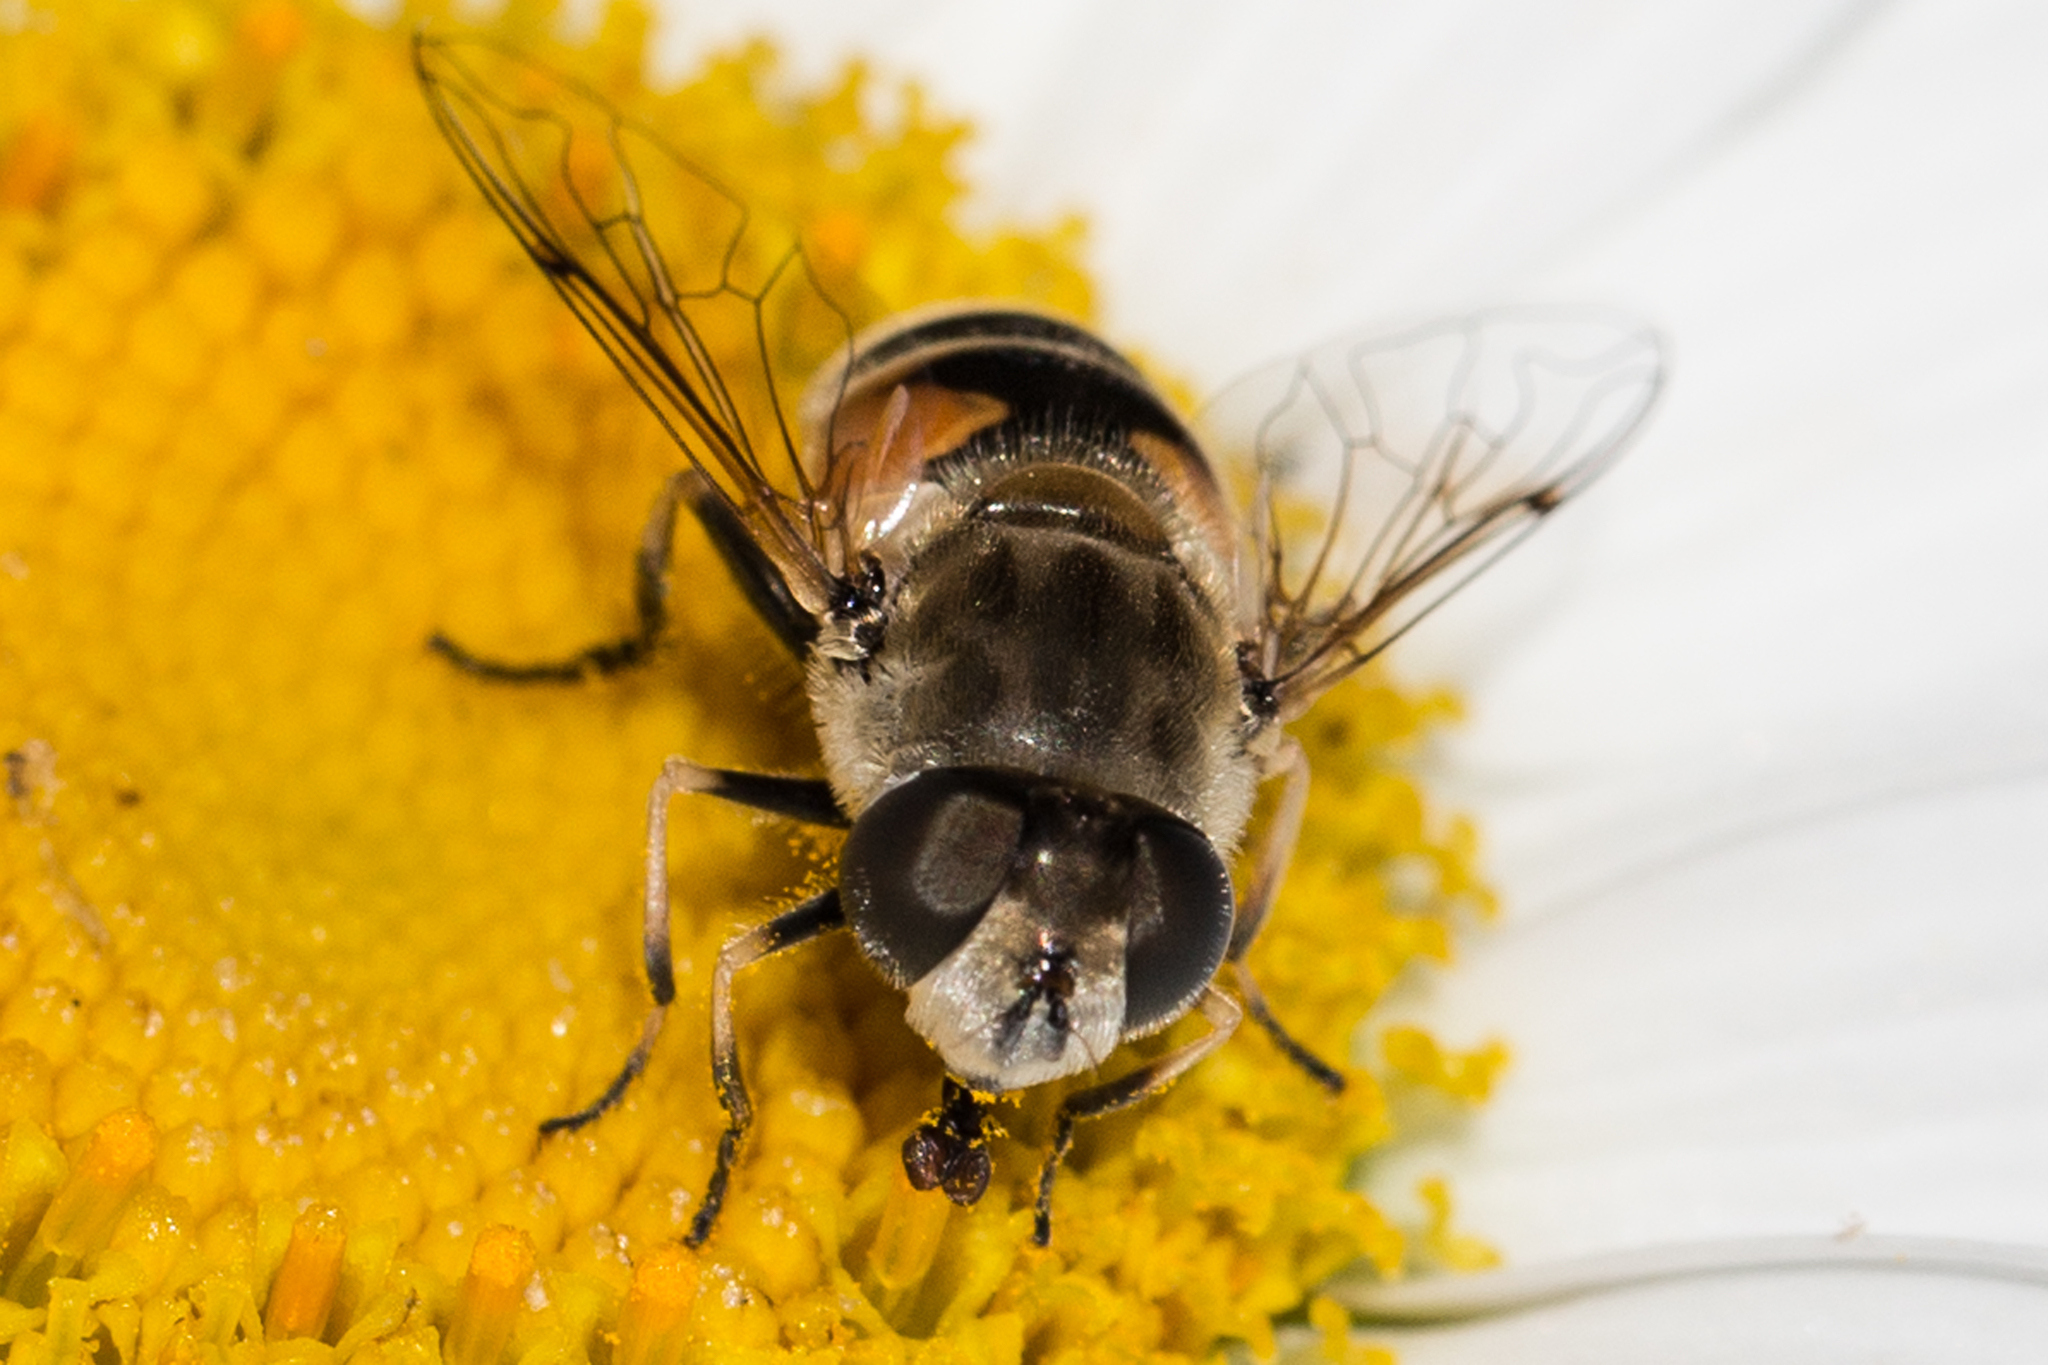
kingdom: Animalia
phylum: Arthropoda
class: Insecta
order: Diptera
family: Syrphidae
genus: Eristalis
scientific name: Eristalis arbustorum
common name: Hover fly
